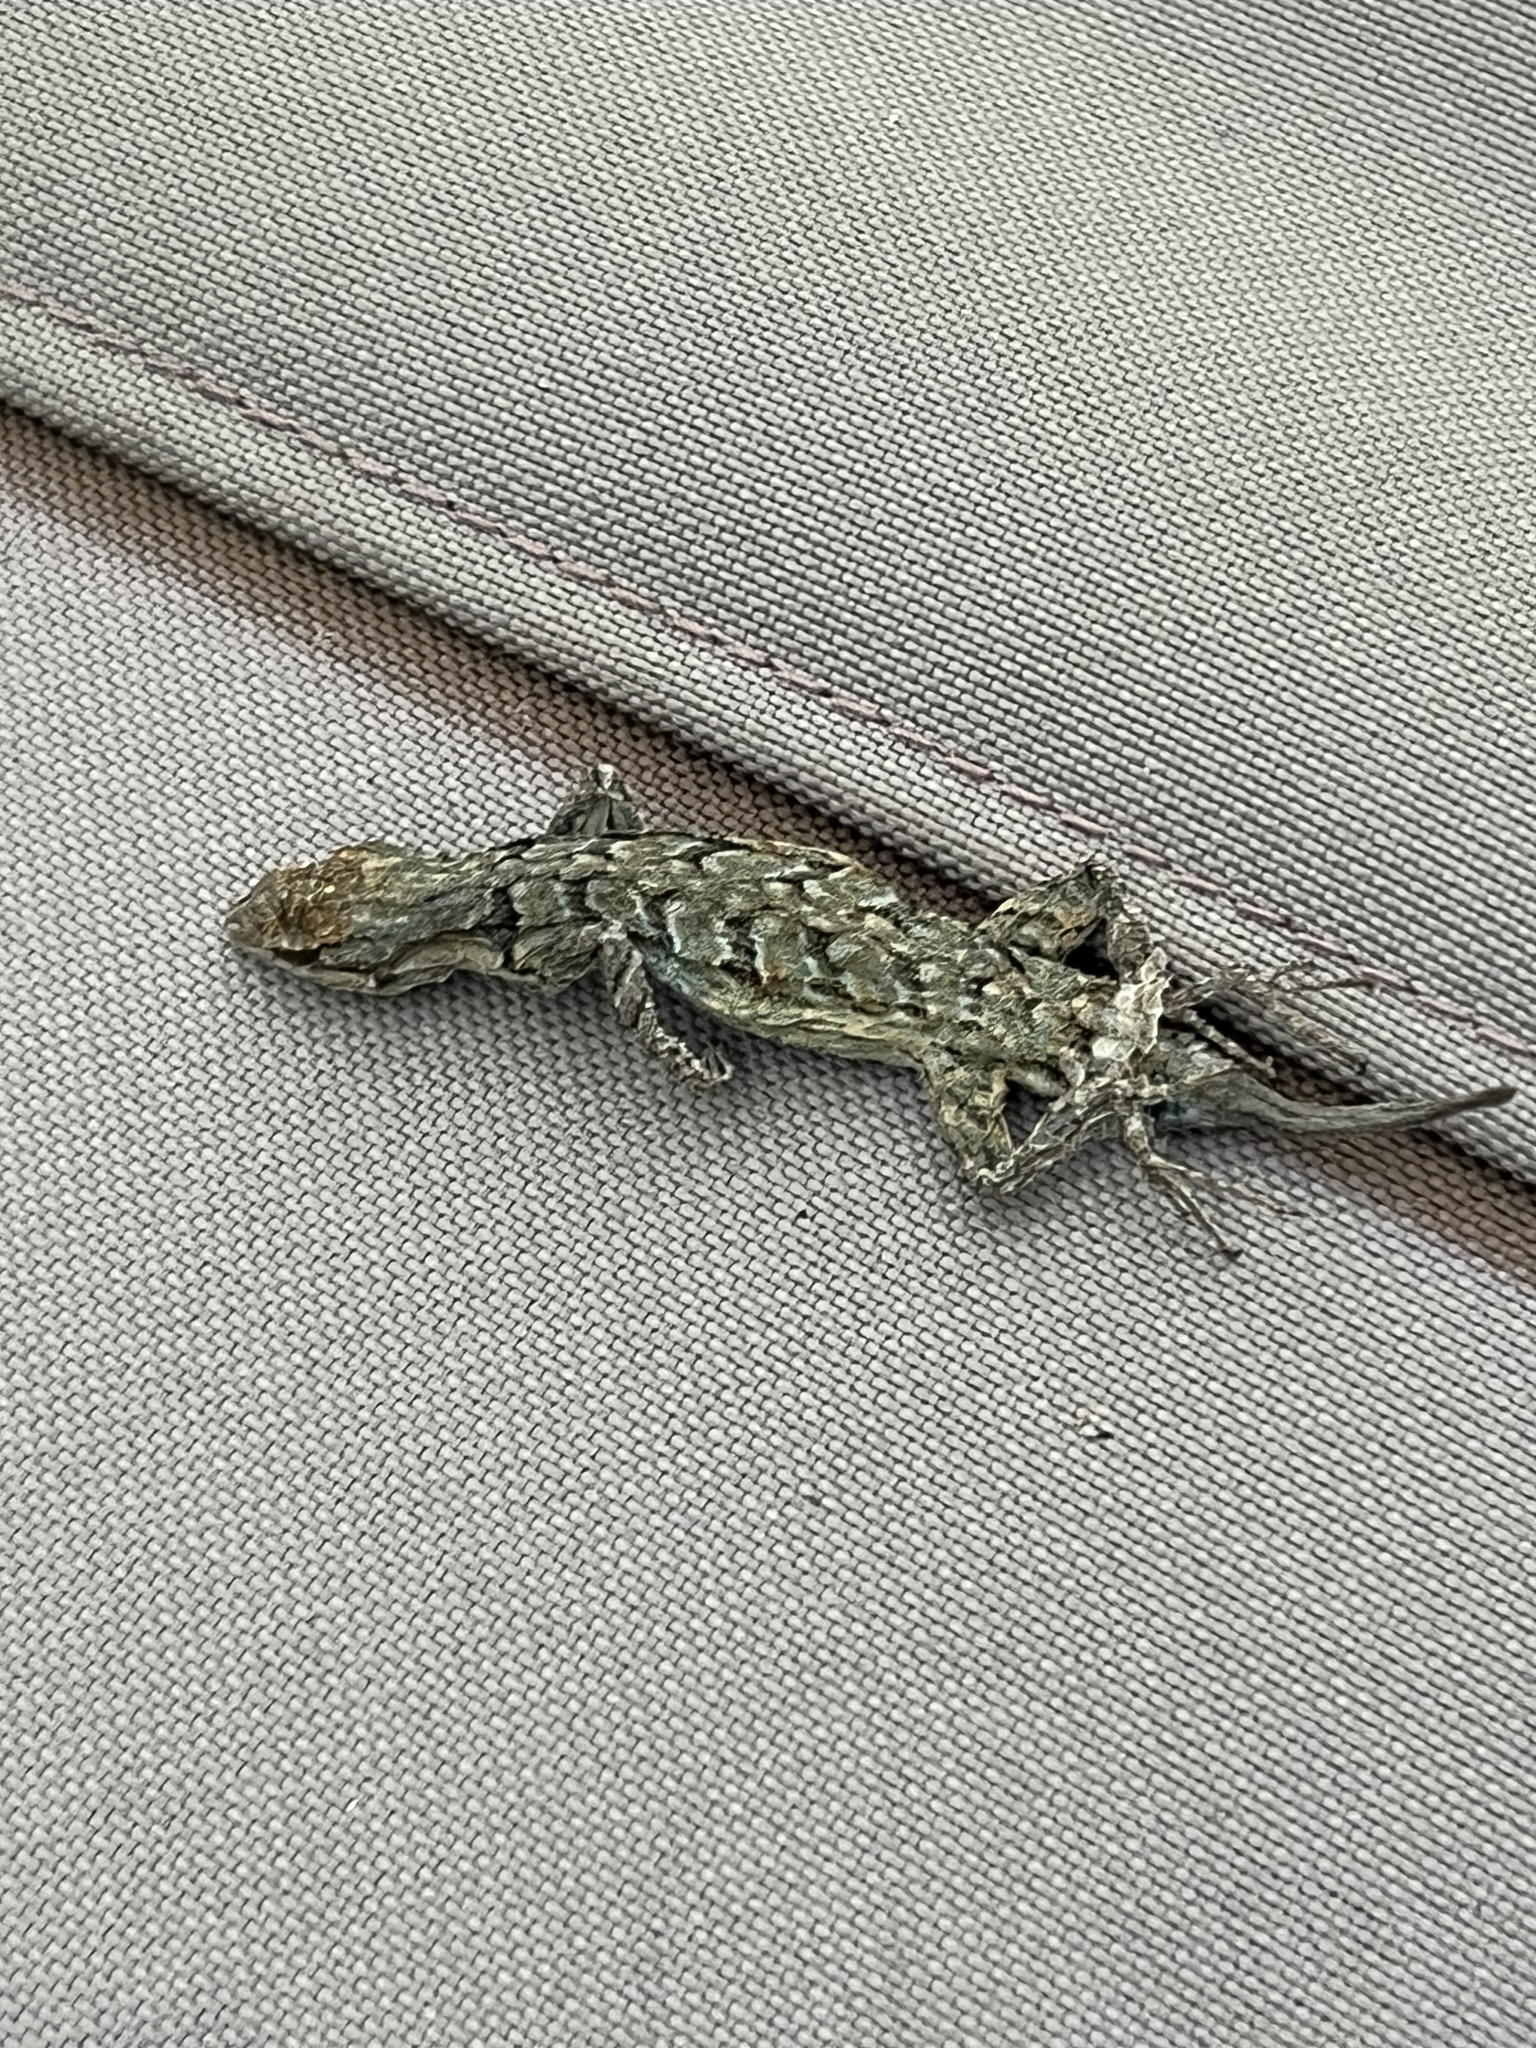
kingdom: Animalia
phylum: Chordata
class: Squamata
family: Phrynosomatidae
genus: Urosaurus
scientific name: Urosaurus ornatus
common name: Ornate tree lizard
